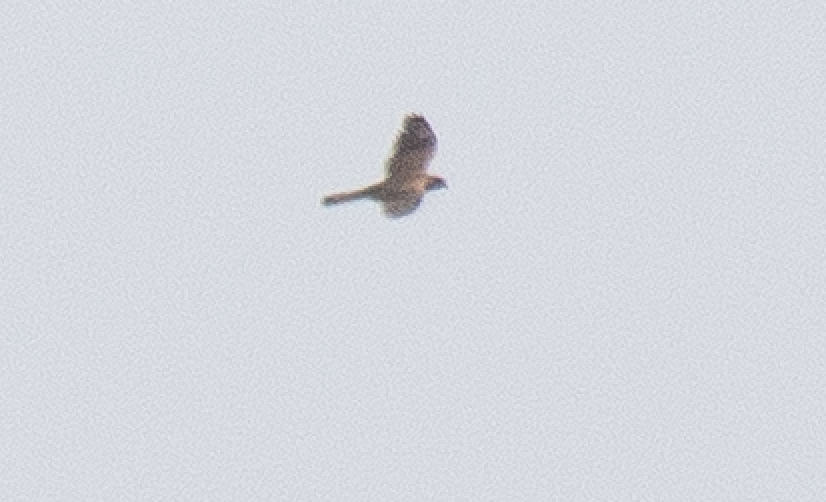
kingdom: Animalia
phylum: Chordata
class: Aves
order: Falconiformes
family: Falconidae
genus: Falco
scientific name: Falco tinnunculus
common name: Common kestrel
